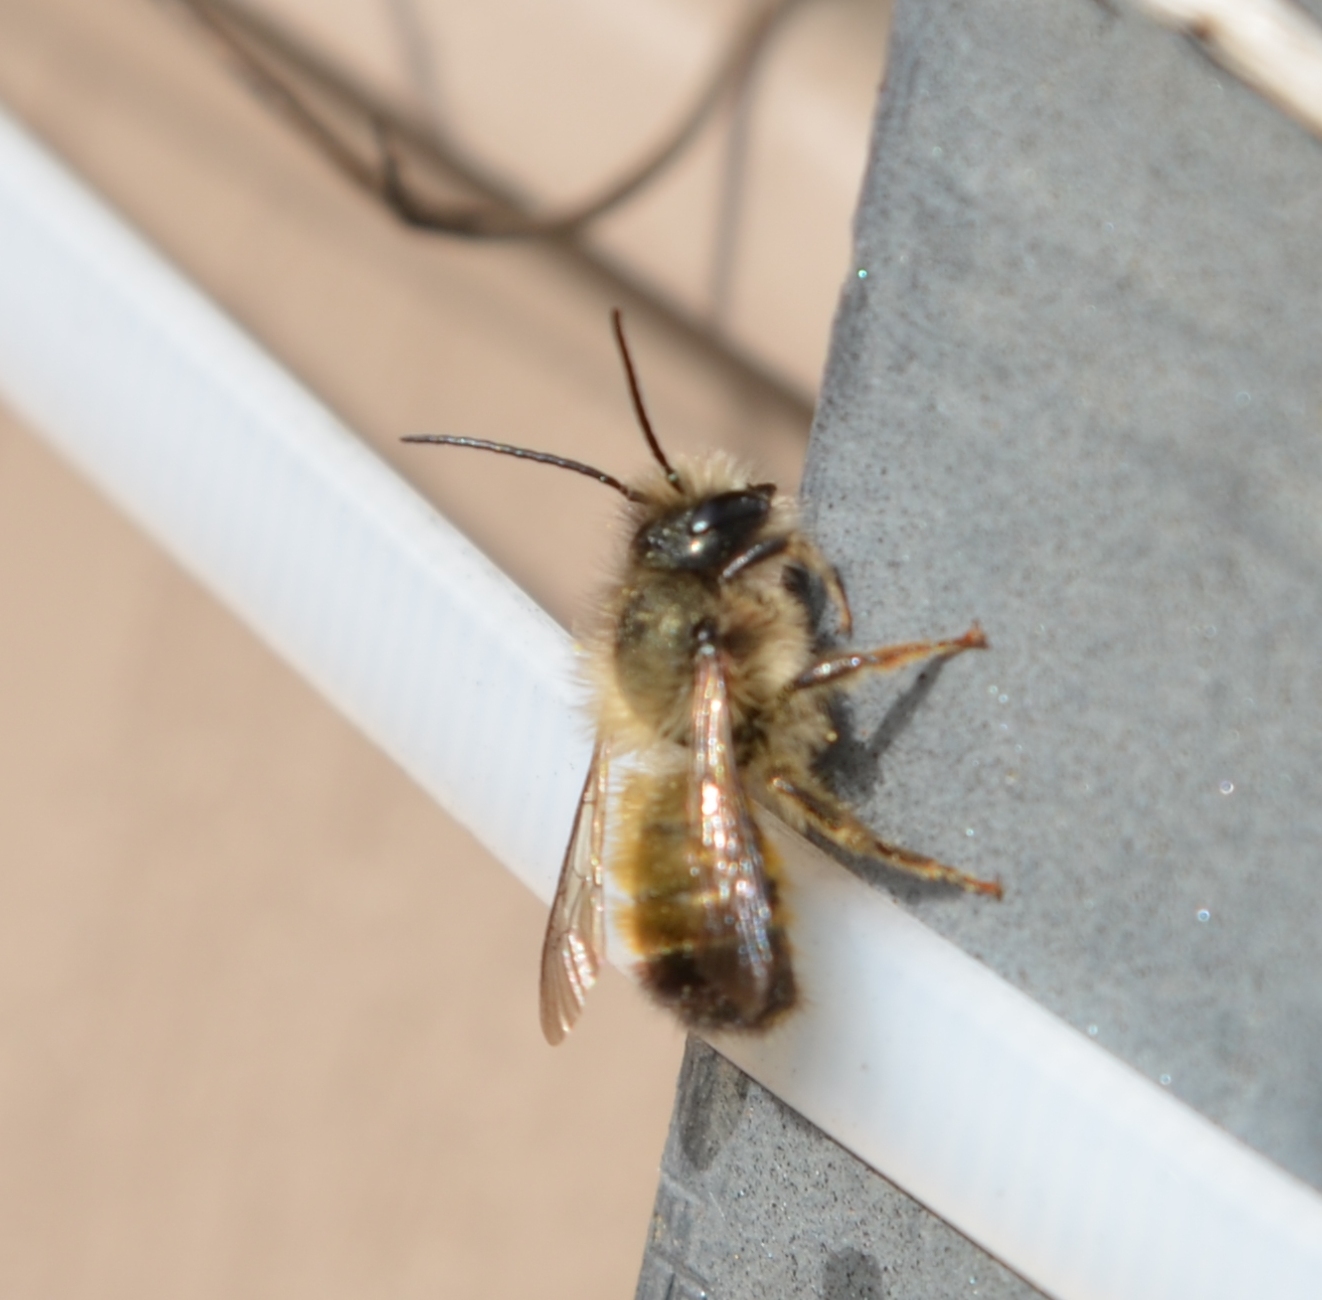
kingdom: Animalia
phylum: Arthropoda
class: Insecta
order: Hymenoptera
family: Megachilidae
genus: Osmia
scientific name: Osmia bicornis
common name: Red mason bee
